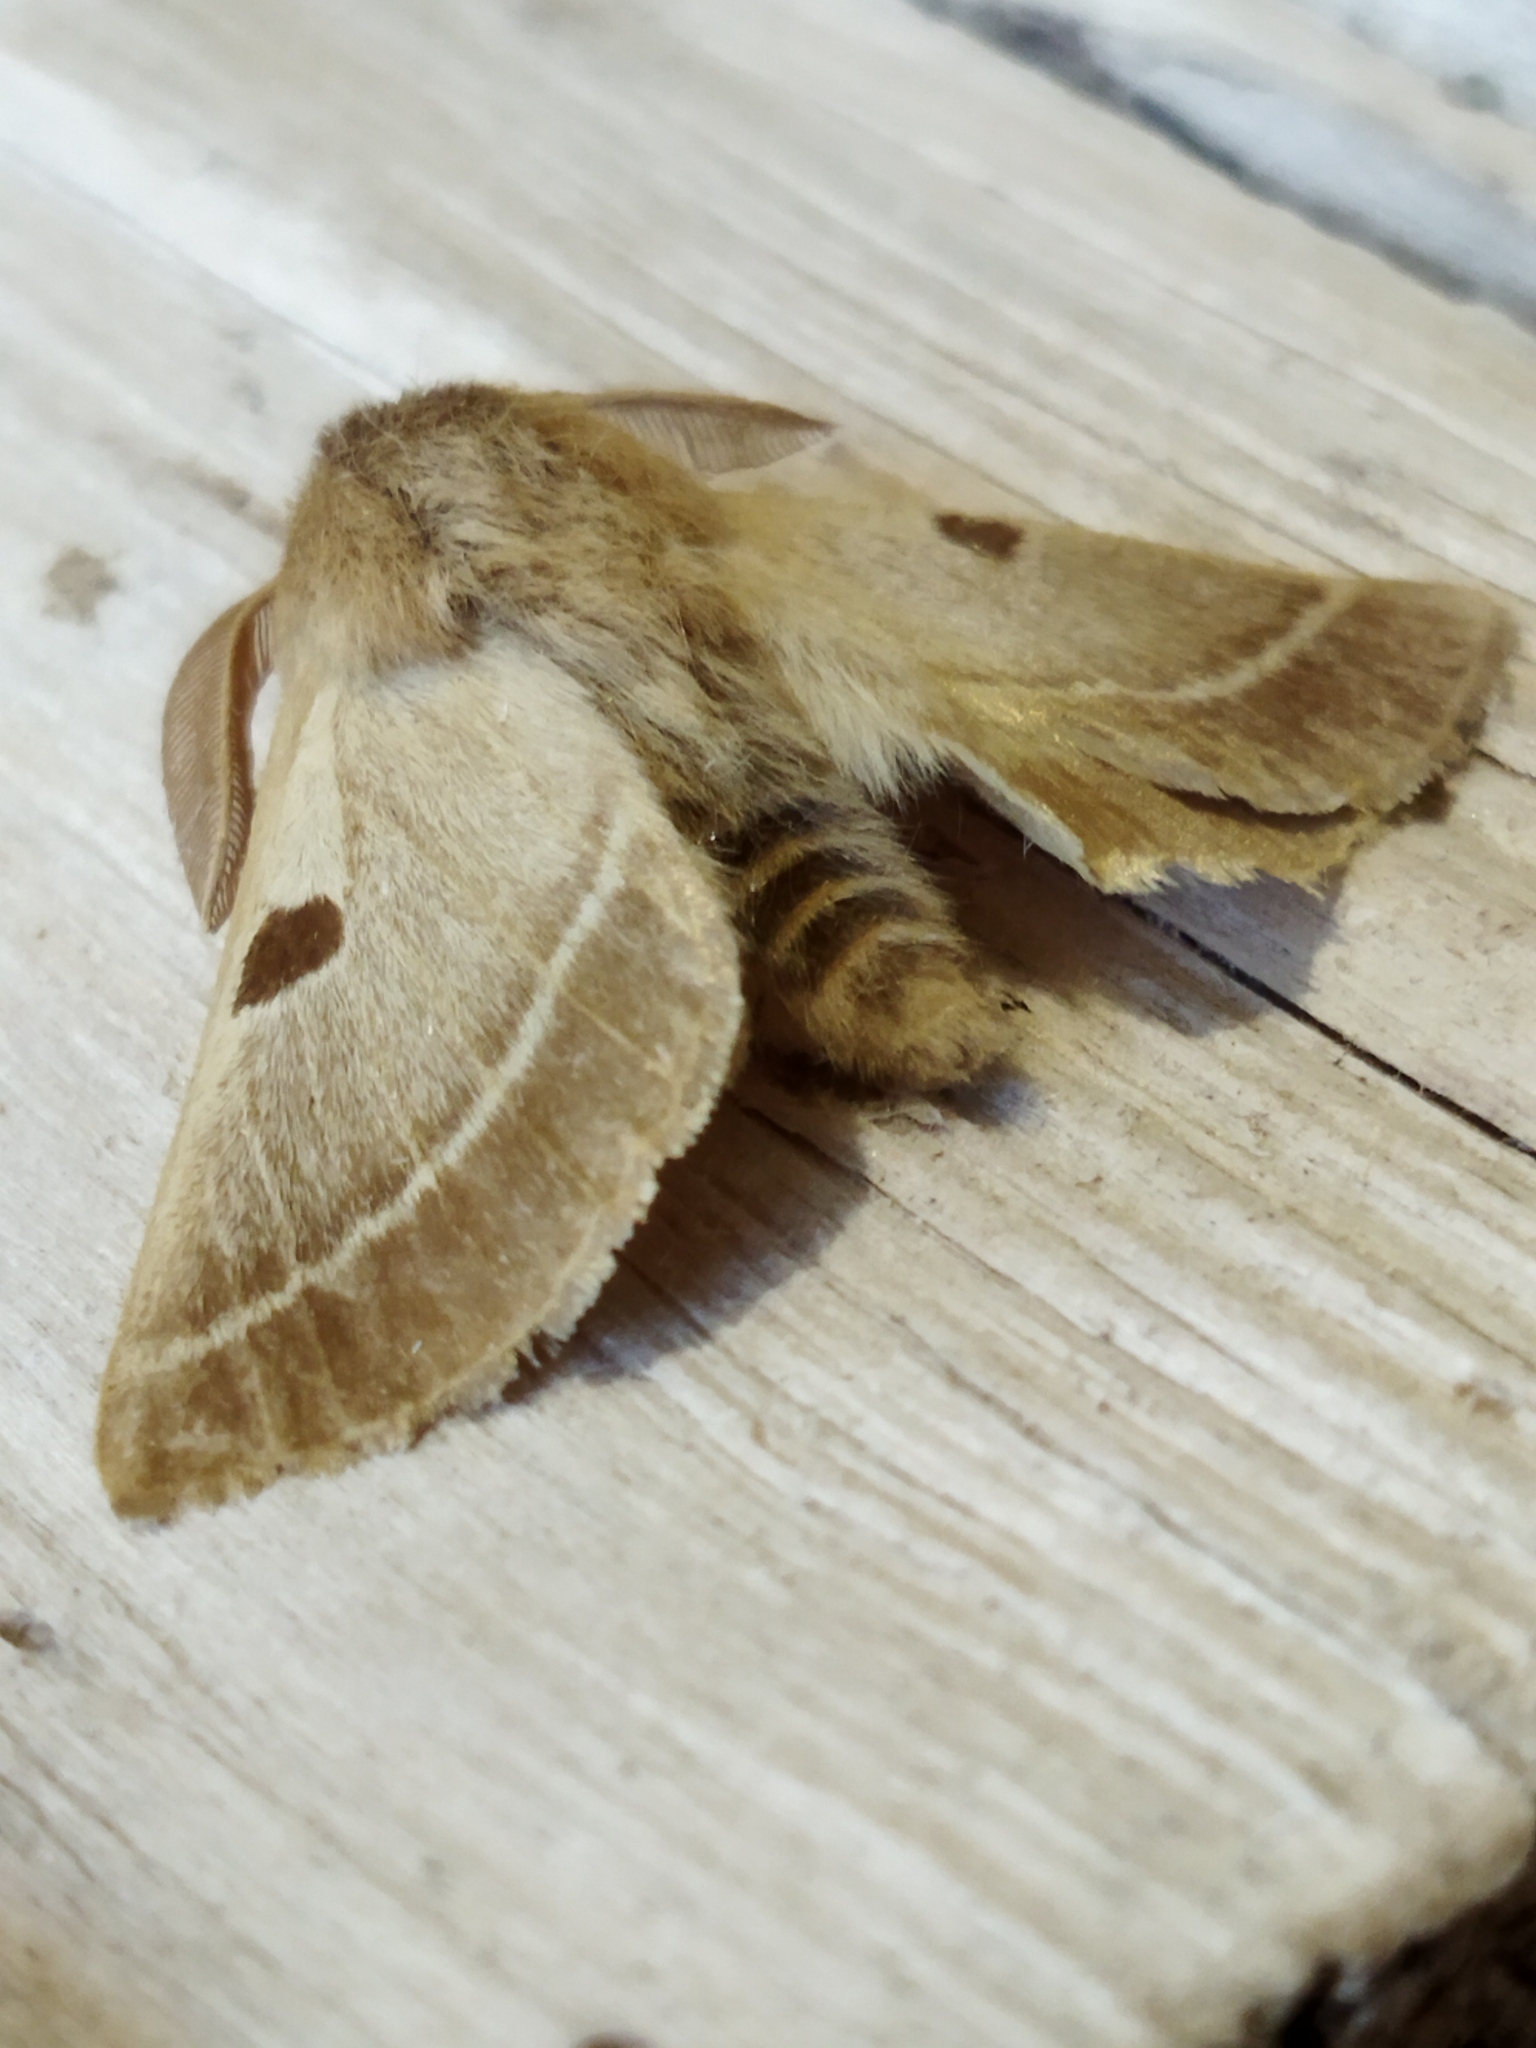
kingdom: Animalia
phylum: Arthropoda
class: Insecta
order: Lepidoptera
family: Brahmaeidae
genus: Lemonia
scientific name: Lemonia balcanica
